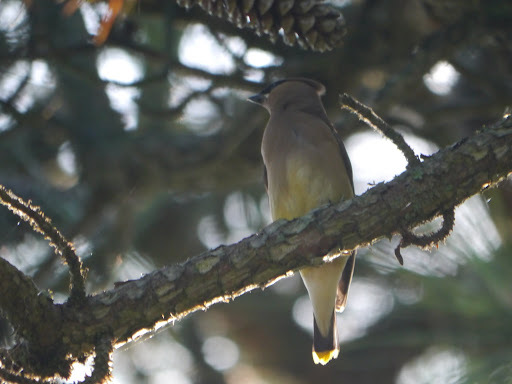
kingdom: Animalia
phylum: Chordata
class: Aves
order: Passeriformes
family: Bombycillidae
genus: Bombycilla
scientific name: Bombycilla cedrorum
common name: Cedar waxwing
